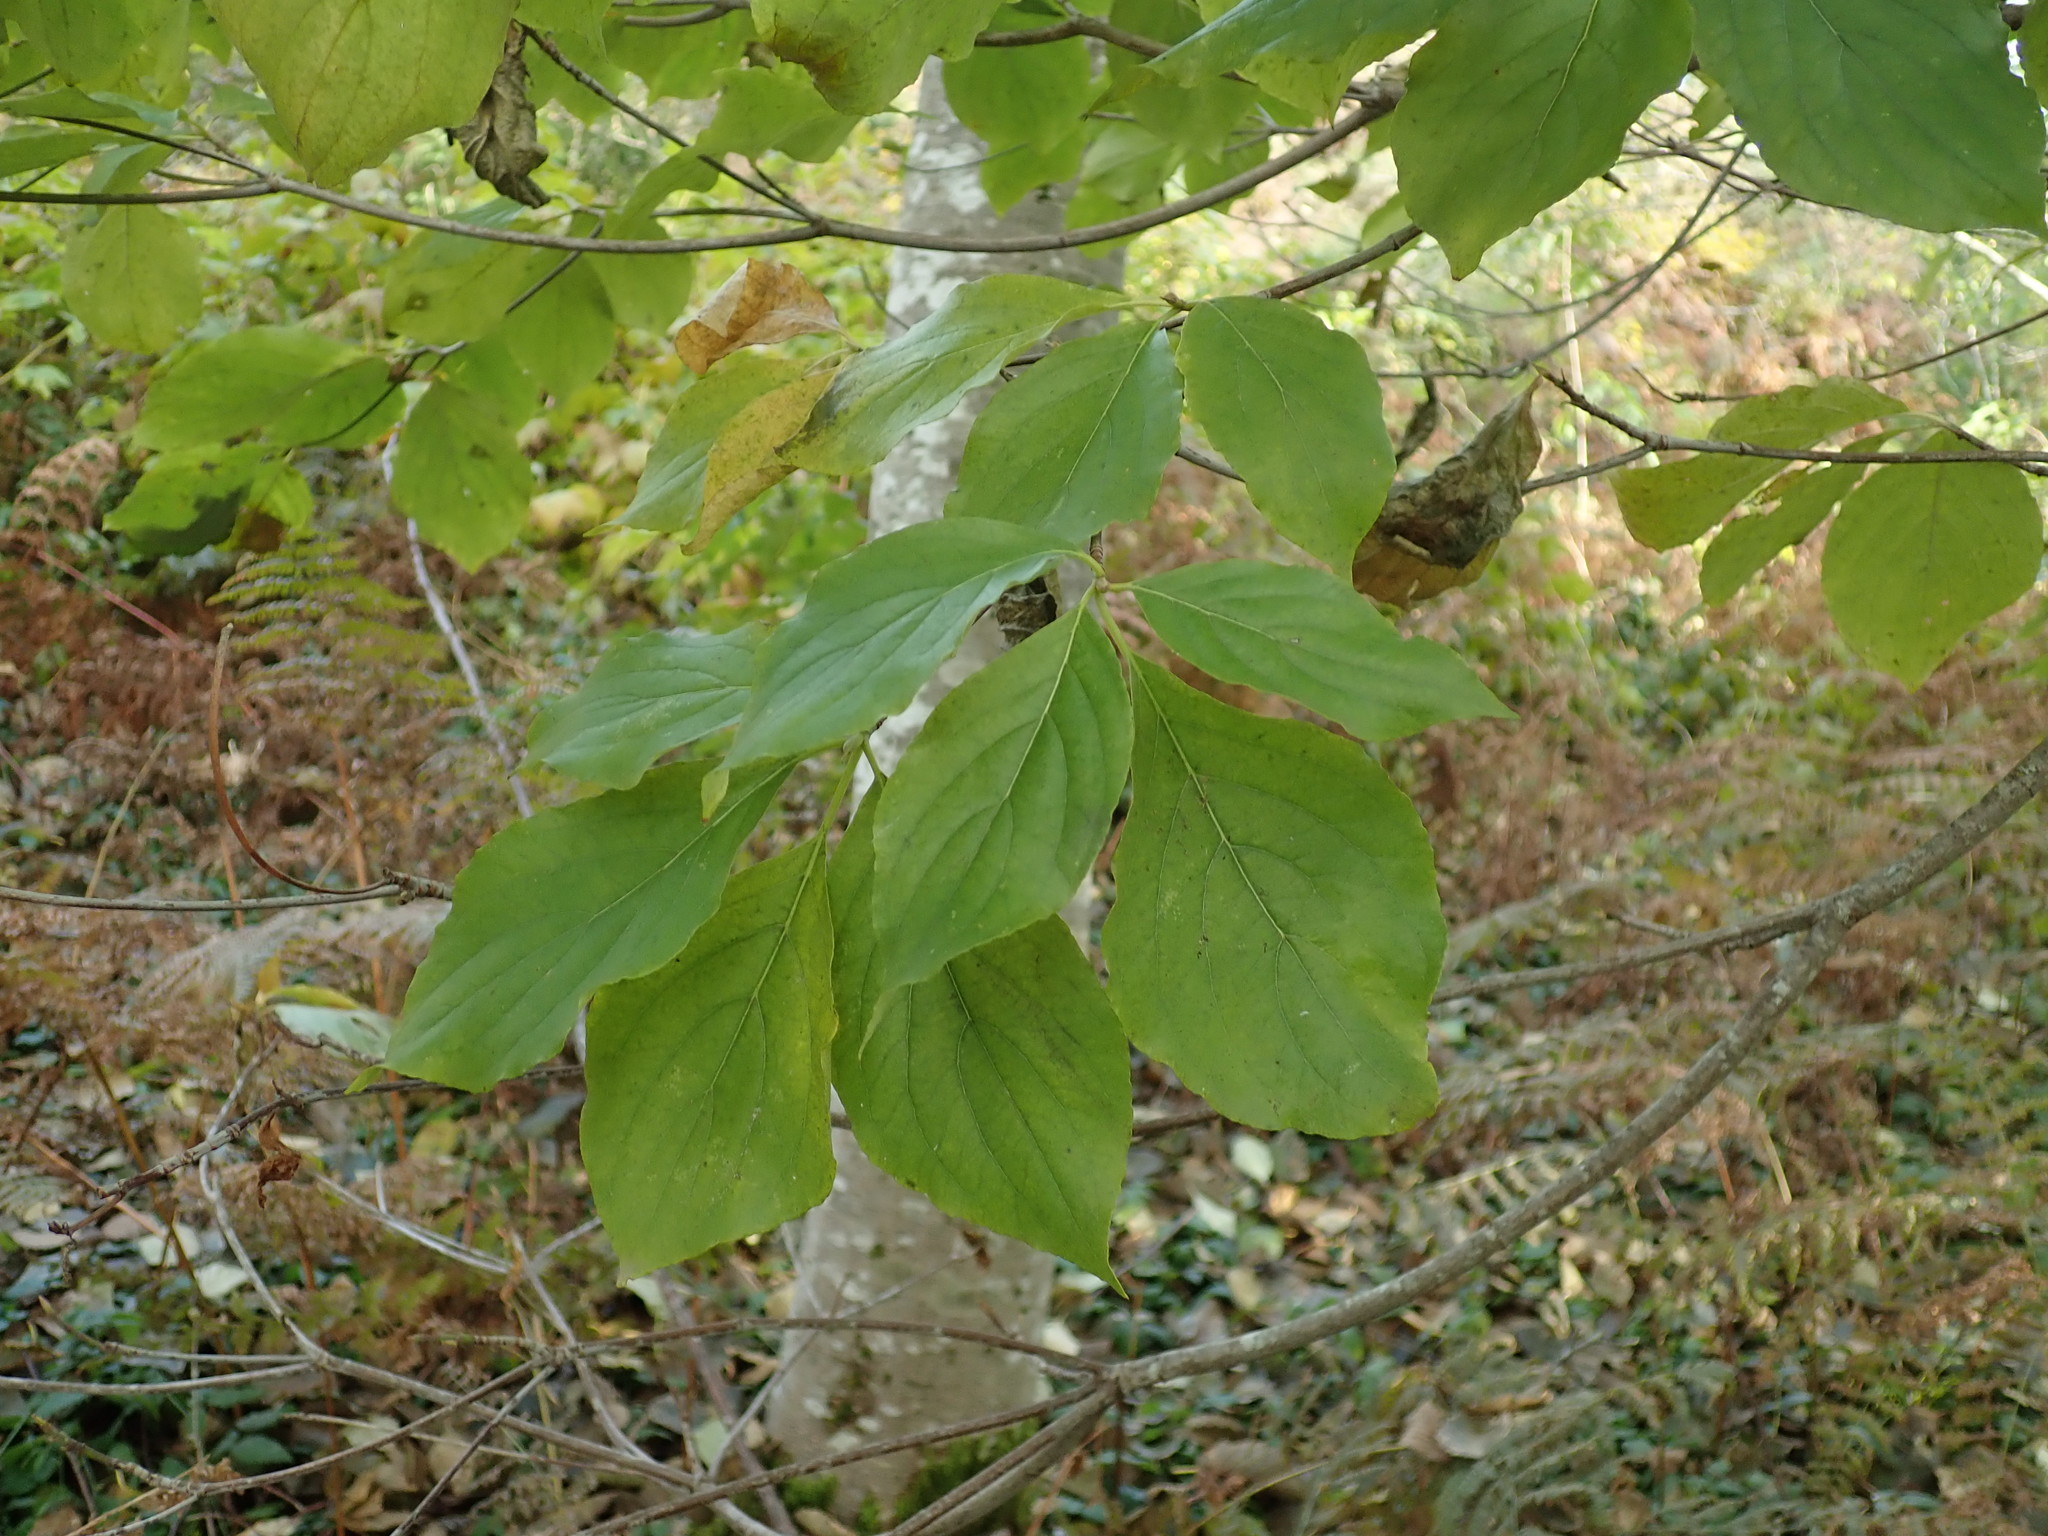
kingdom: Plantae
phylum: Tracheophyta
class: Magnoliopsida
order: Cornales
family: Cornaceae
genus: Cornus
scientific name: Cornus nuttallii
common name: Pacific dogwood
